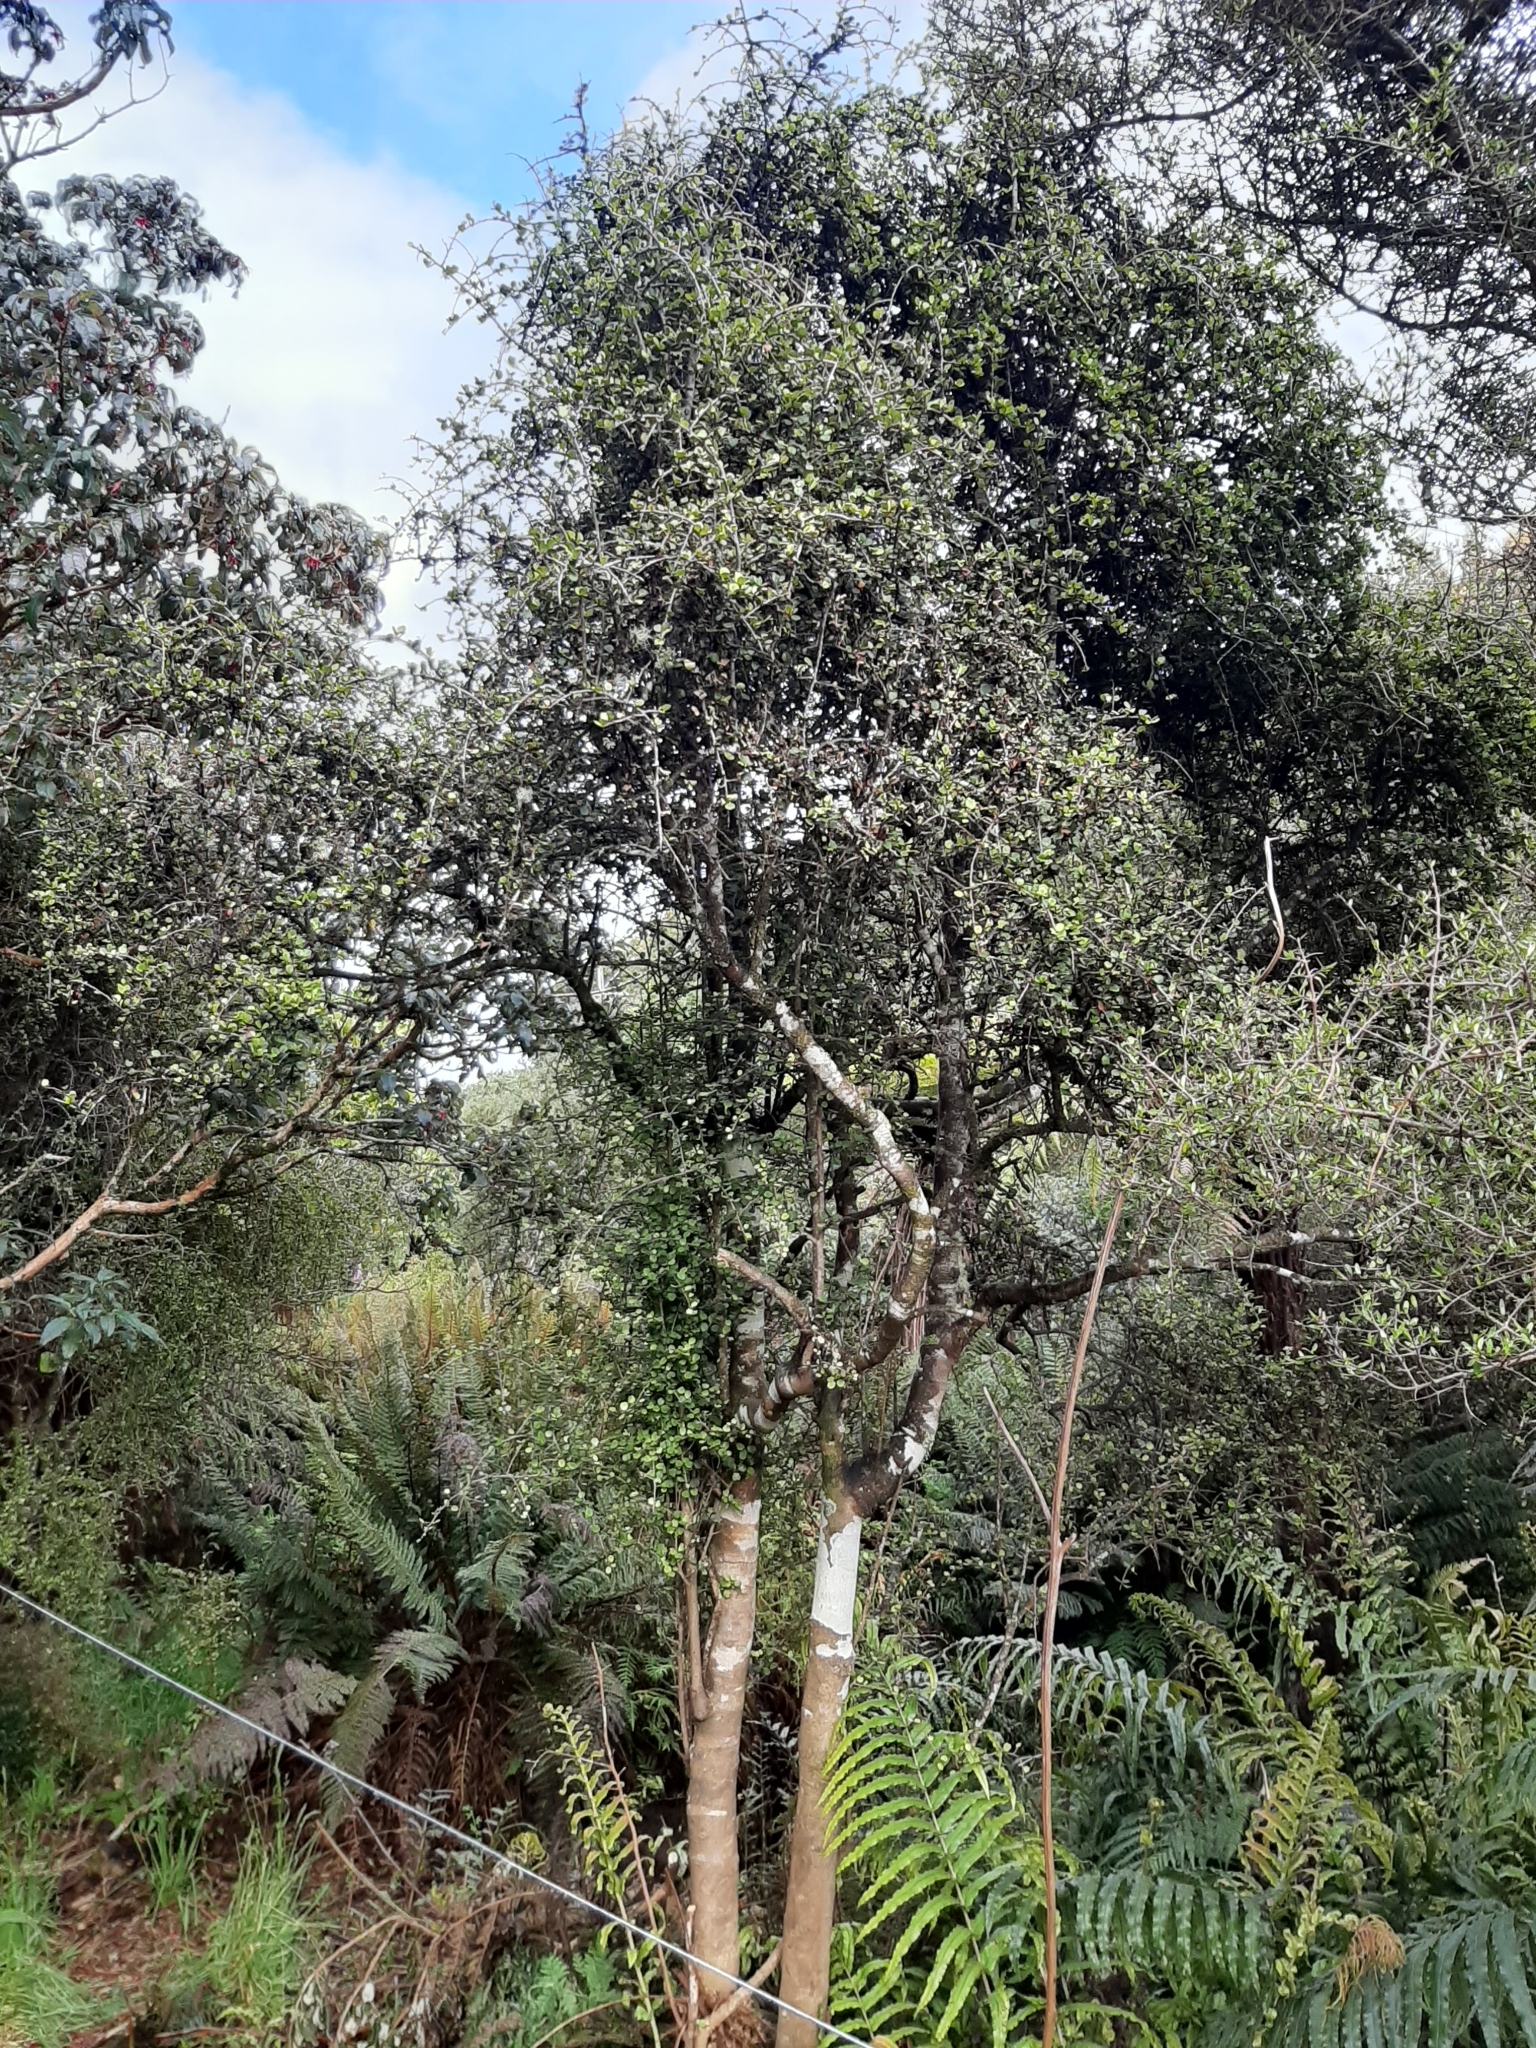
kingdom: Plantae
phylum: Tracheophyta
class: Magnoliopsida
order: Ericales
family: Primulaceae
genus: Myrsine
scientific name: Myrsine divaricata
